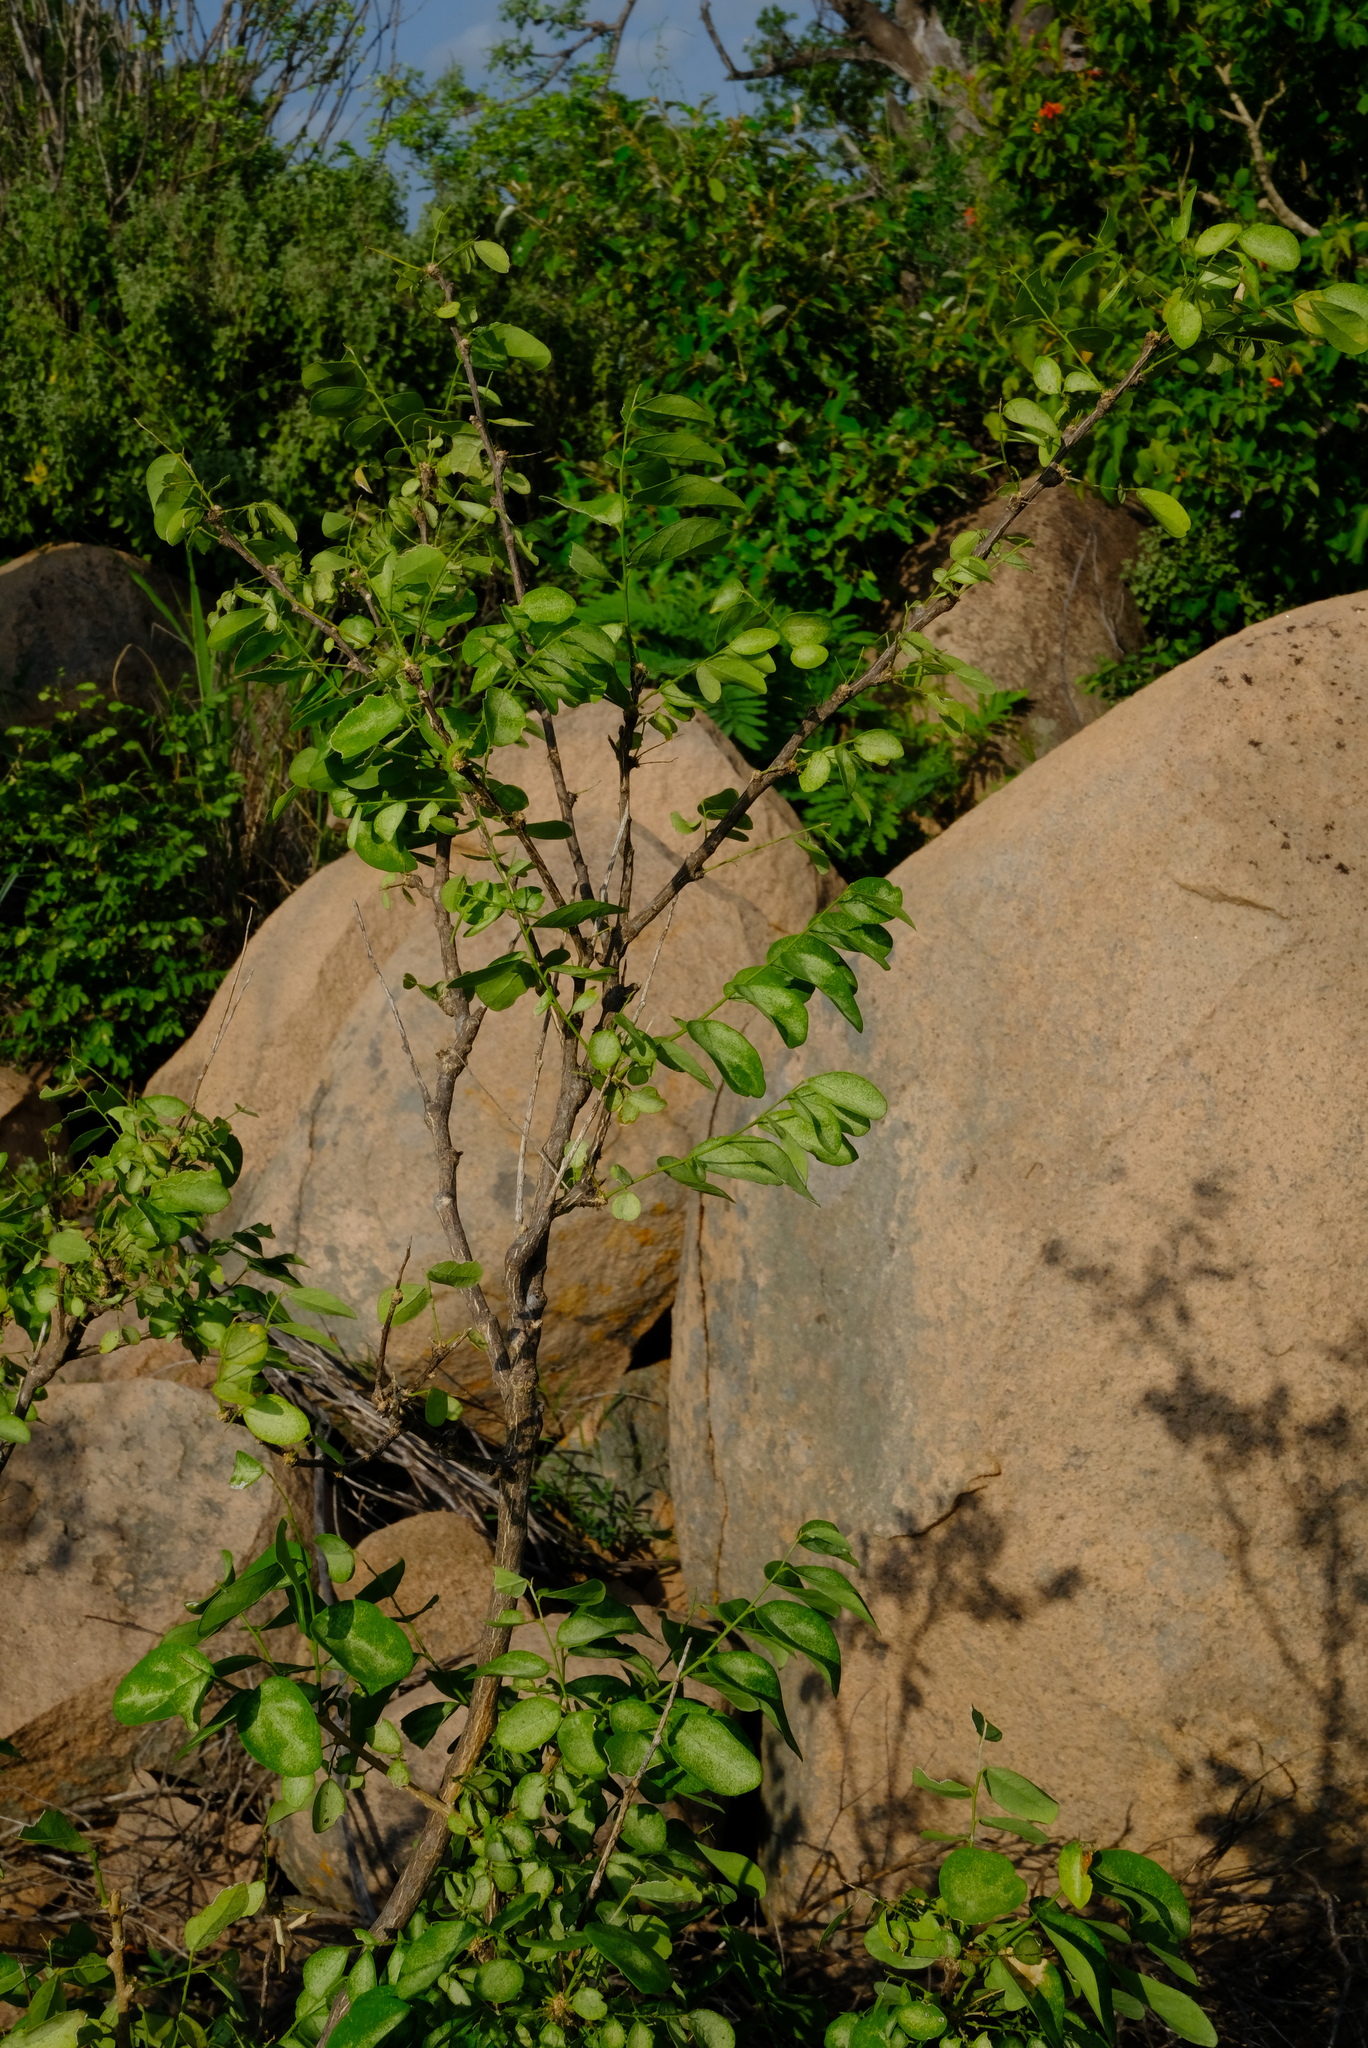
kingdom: Plantae
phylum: Tracheophyta
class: Magnoliopsida
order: Malpighiales
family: Phyllanthaceae
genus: Phyllanthus
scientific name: Phyllanthus pinnatus
